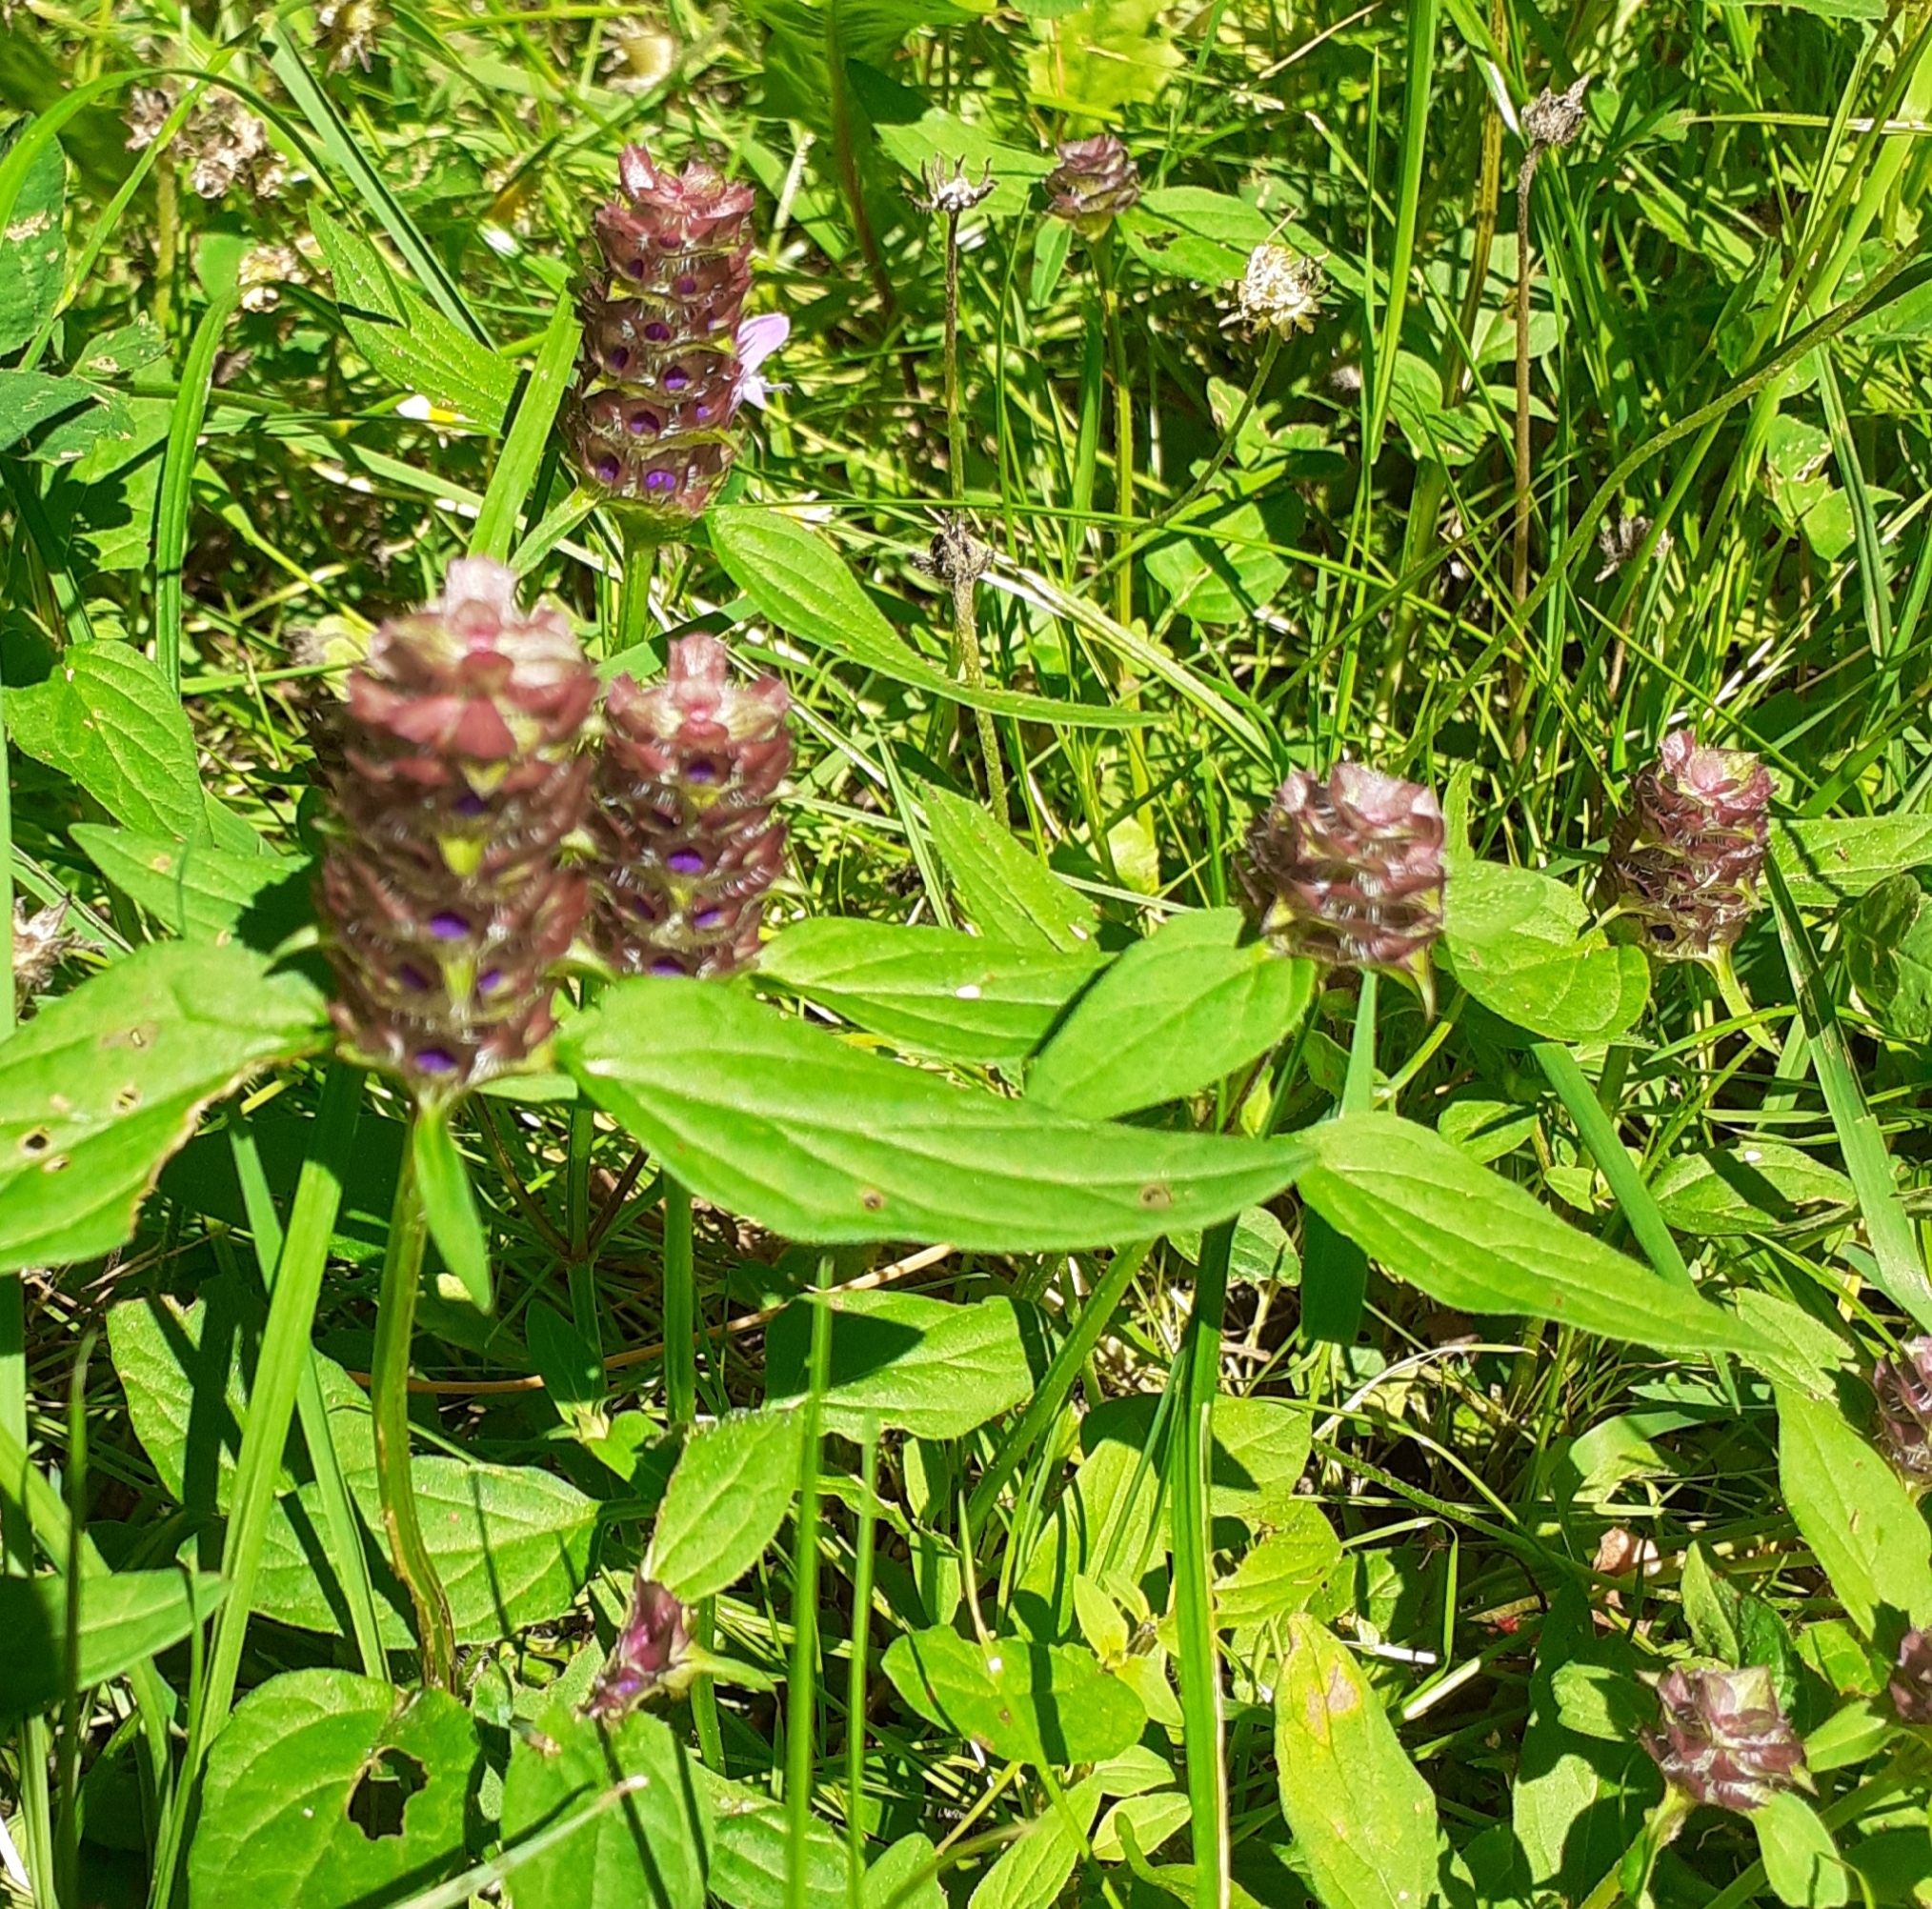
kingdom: Plantae
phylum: Tracheophyta
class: Magnoliopsida
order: Lamiales
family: Lamiaceae
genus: Prunella
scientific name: Prunella vulgaris
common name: Heal-all
